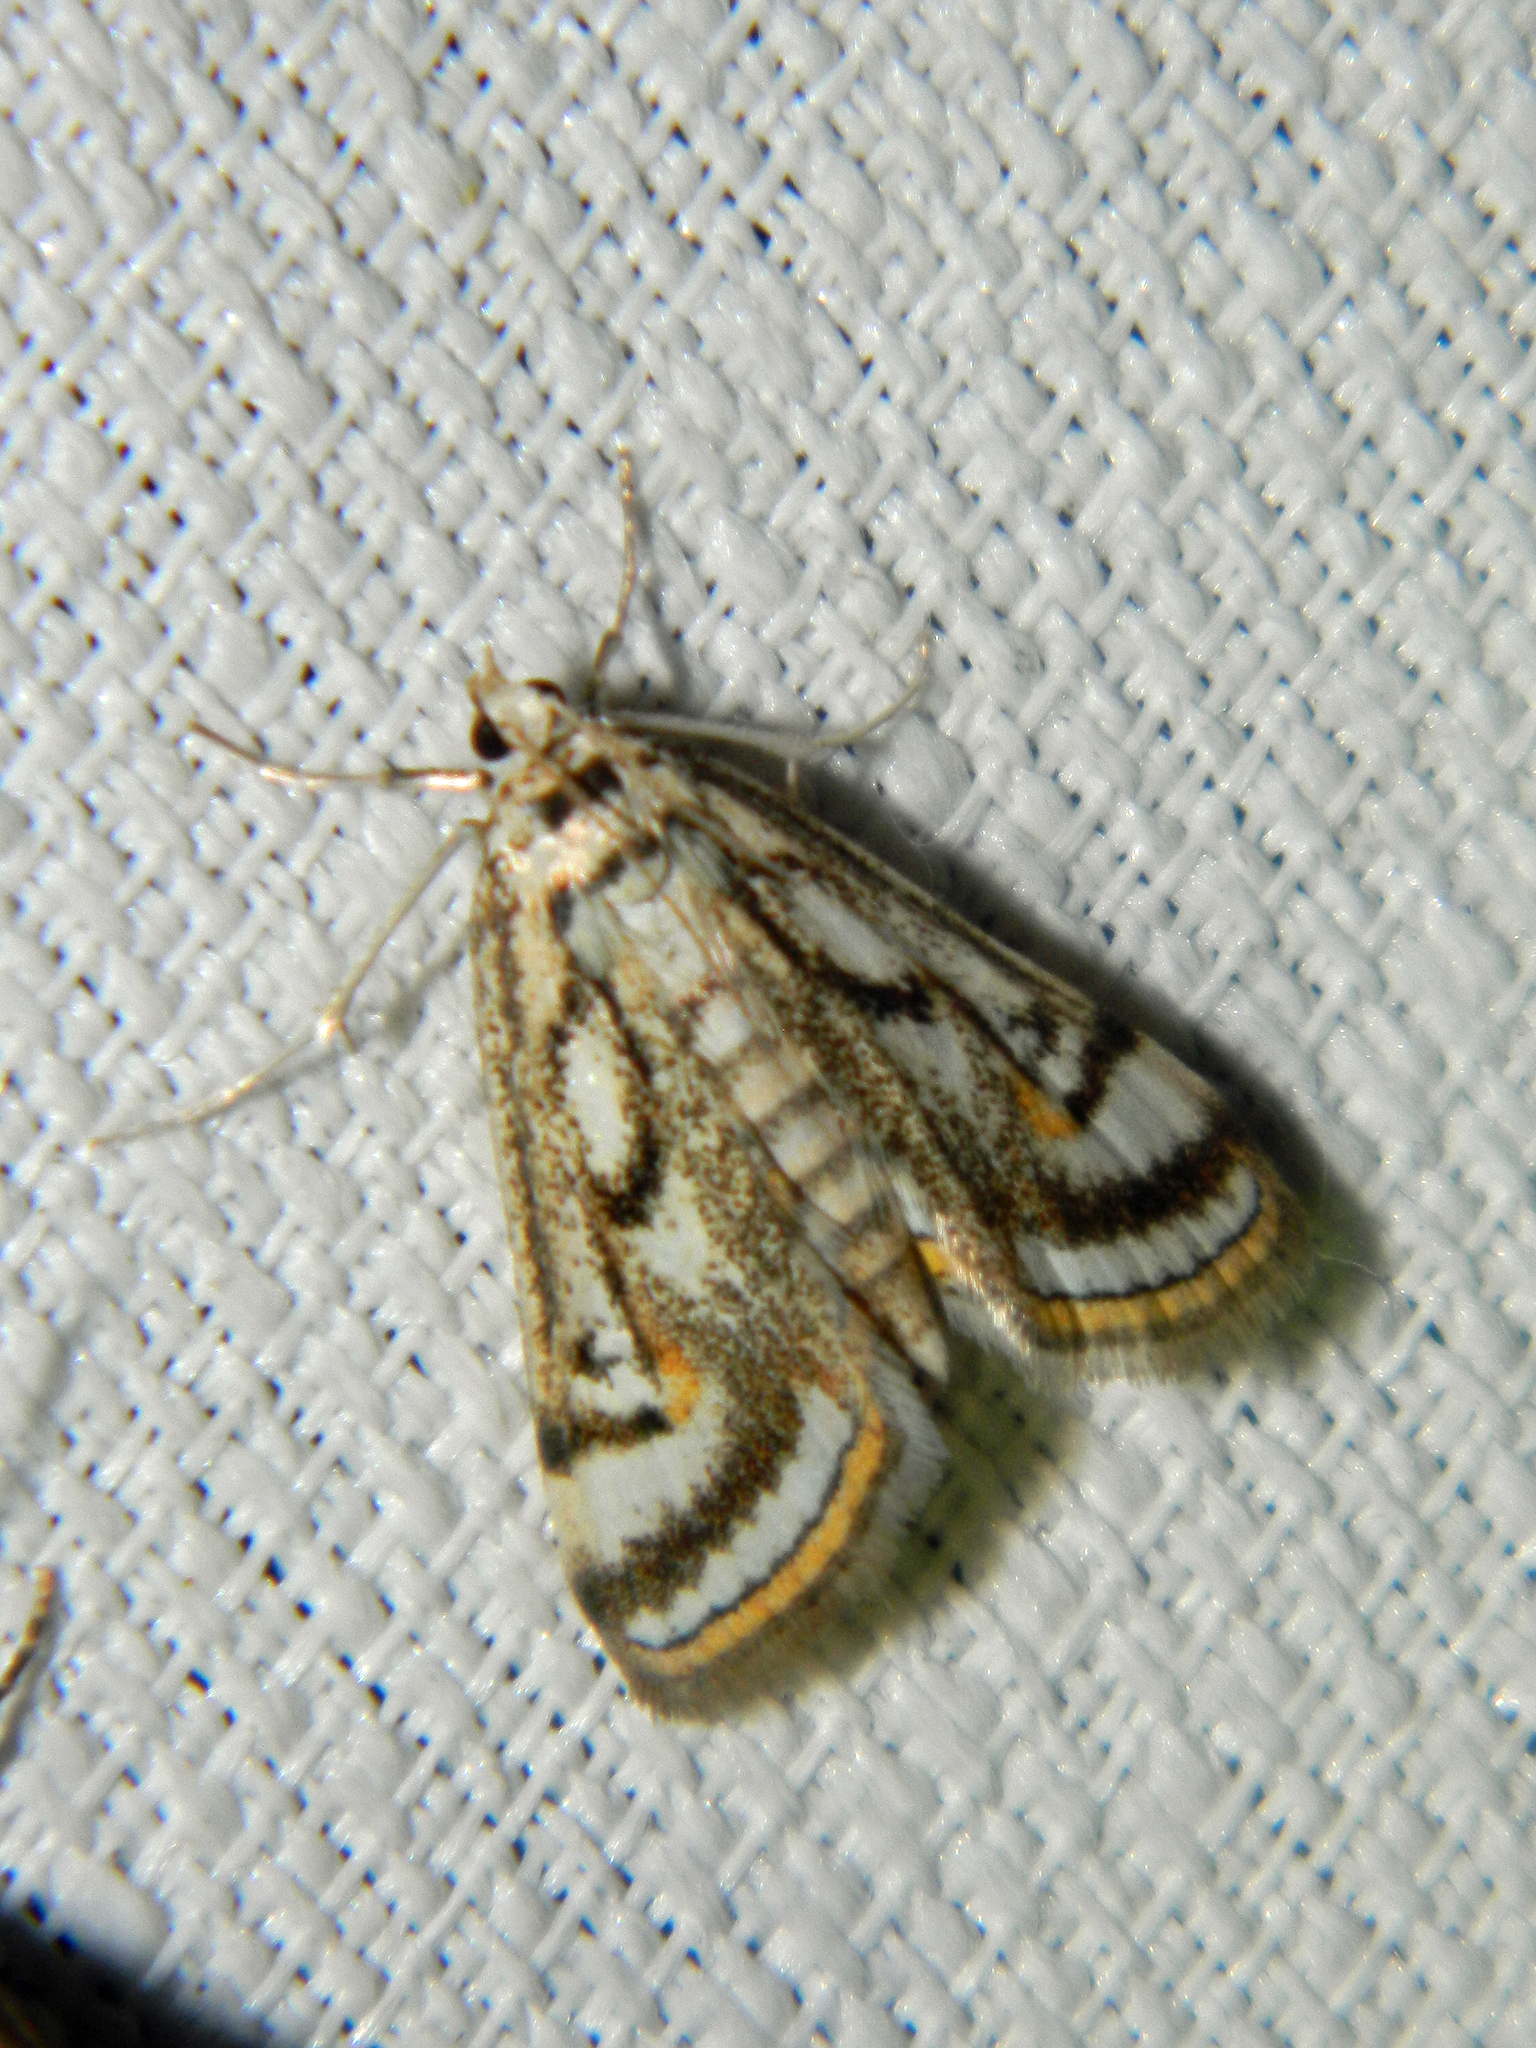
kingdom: Animalia
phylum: Arthropoda
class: Insecta
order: Lepidoptera
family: Crambidae
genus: Parapoynx
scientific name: Parapoynx badiusalis
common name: Chestnut-marked pondweed moth
